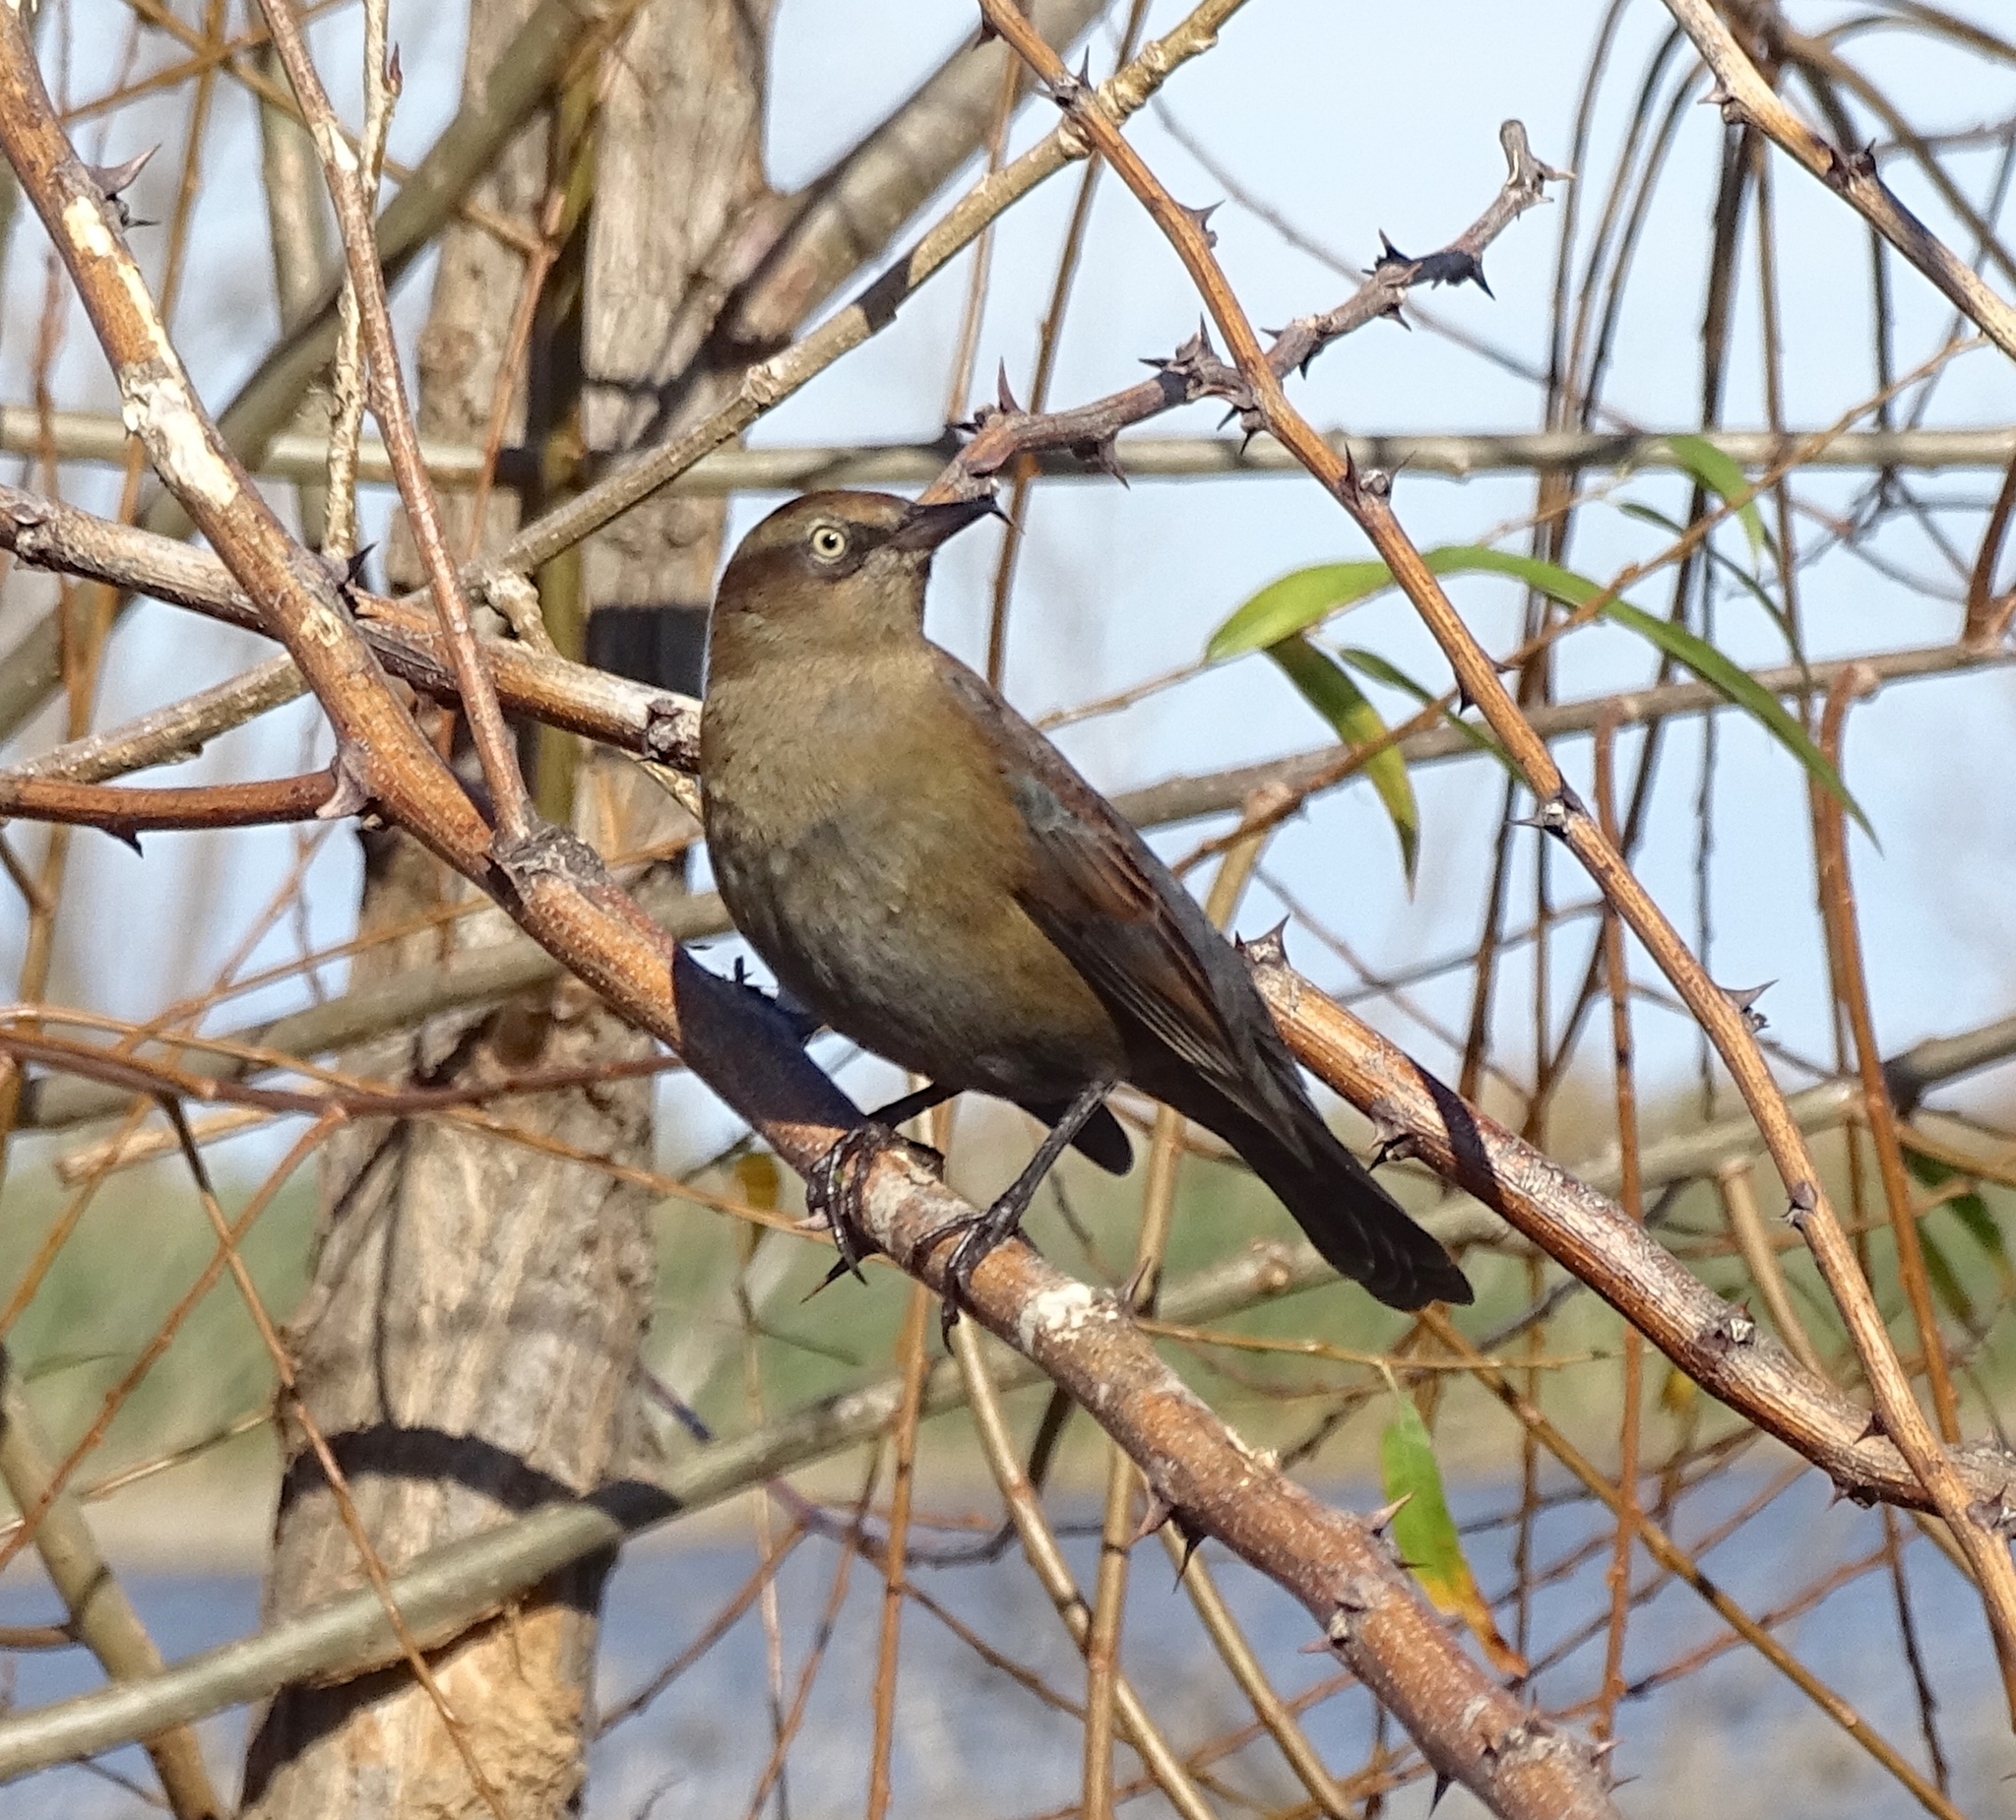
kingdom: Animalia
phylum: Chordata
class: Aves
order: Passeriformes
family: Icteridae
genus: Euphagus
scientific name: Euphagus carolinus
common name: Rusty blackbird
